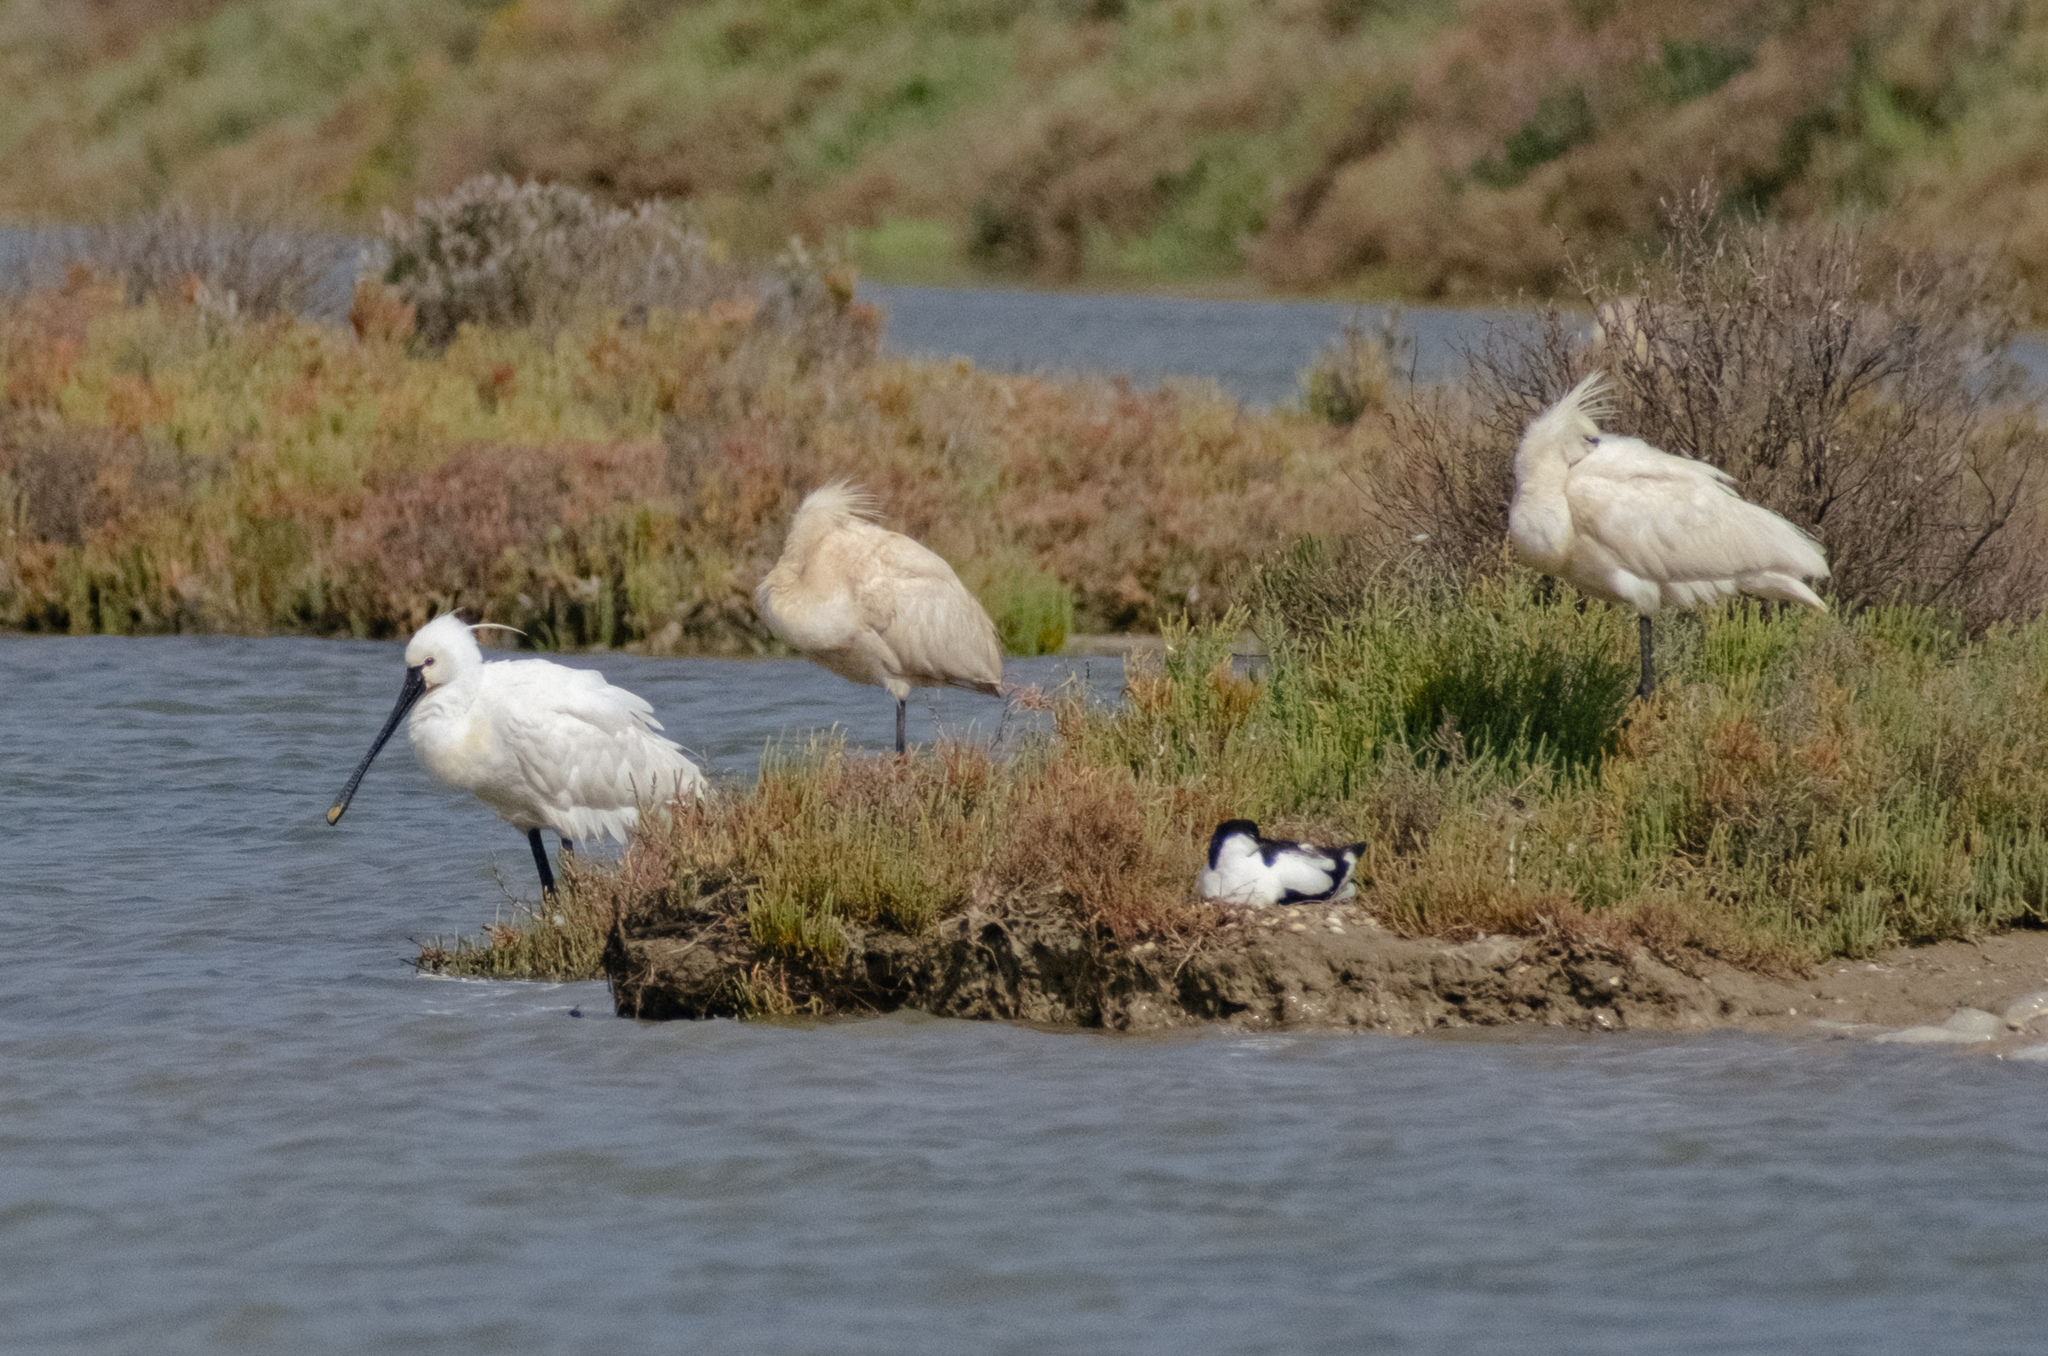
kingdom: Animalia
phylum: Chordata
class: Aves
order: Pelecaniformes
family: Threskiornithidae
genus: Platalea
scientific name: Platalea leucorodia
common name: Eurasian spoonbill
